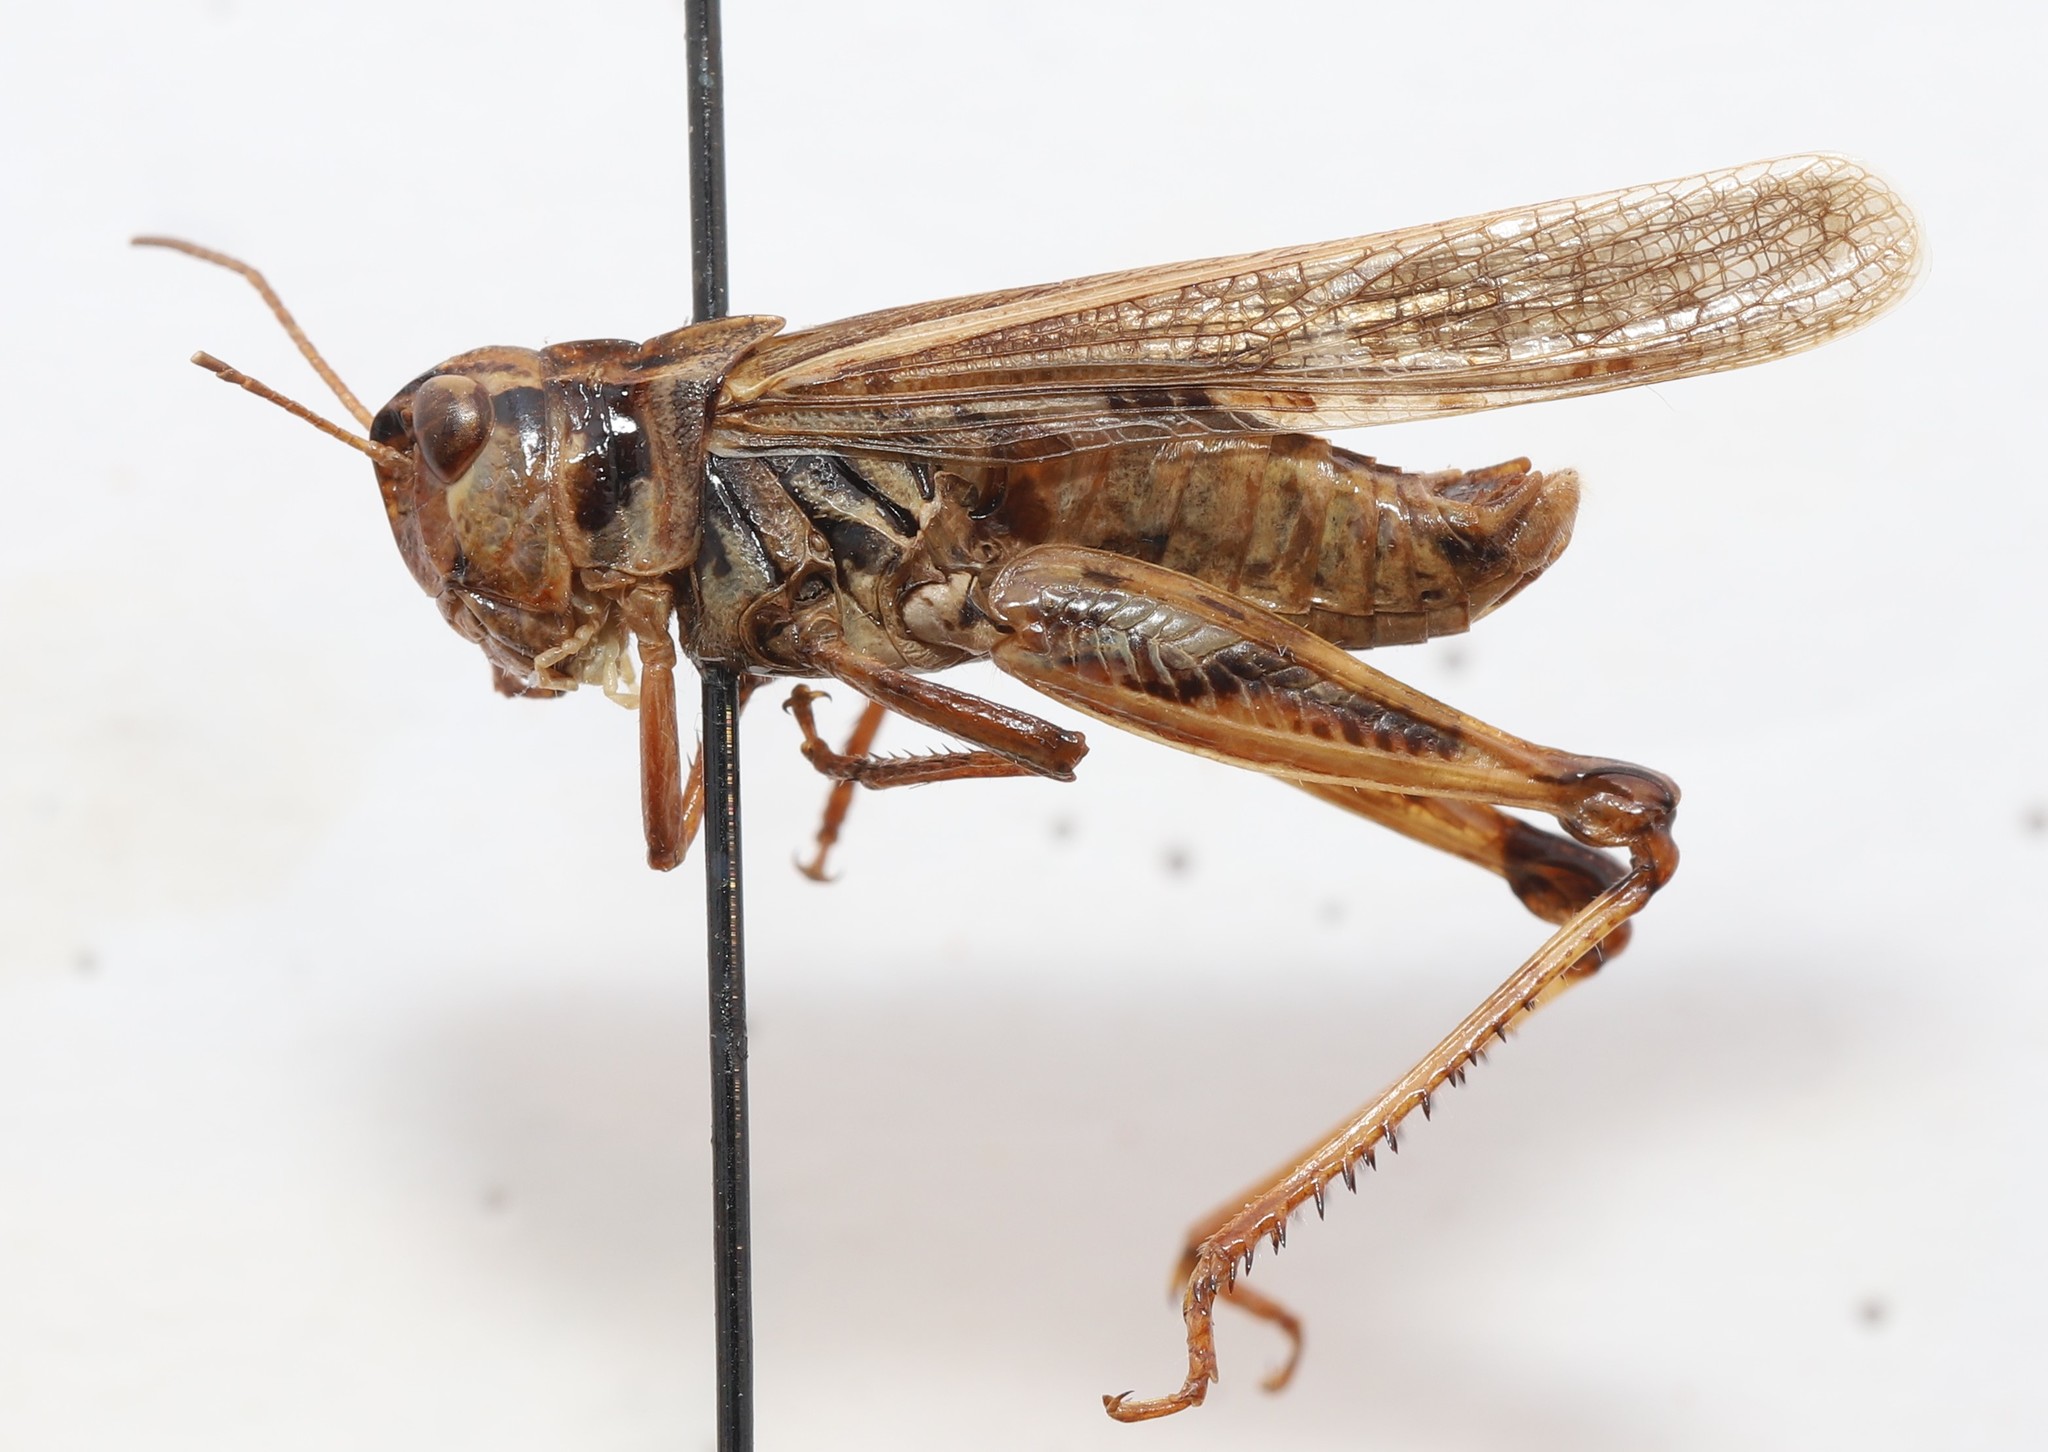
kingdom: Animalia
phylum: Arthropoda
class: Insecta
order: Orthoptera
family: Acrididae
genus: Camnula
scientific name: Camnula pellucida
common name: Clear-winged grasshopper
